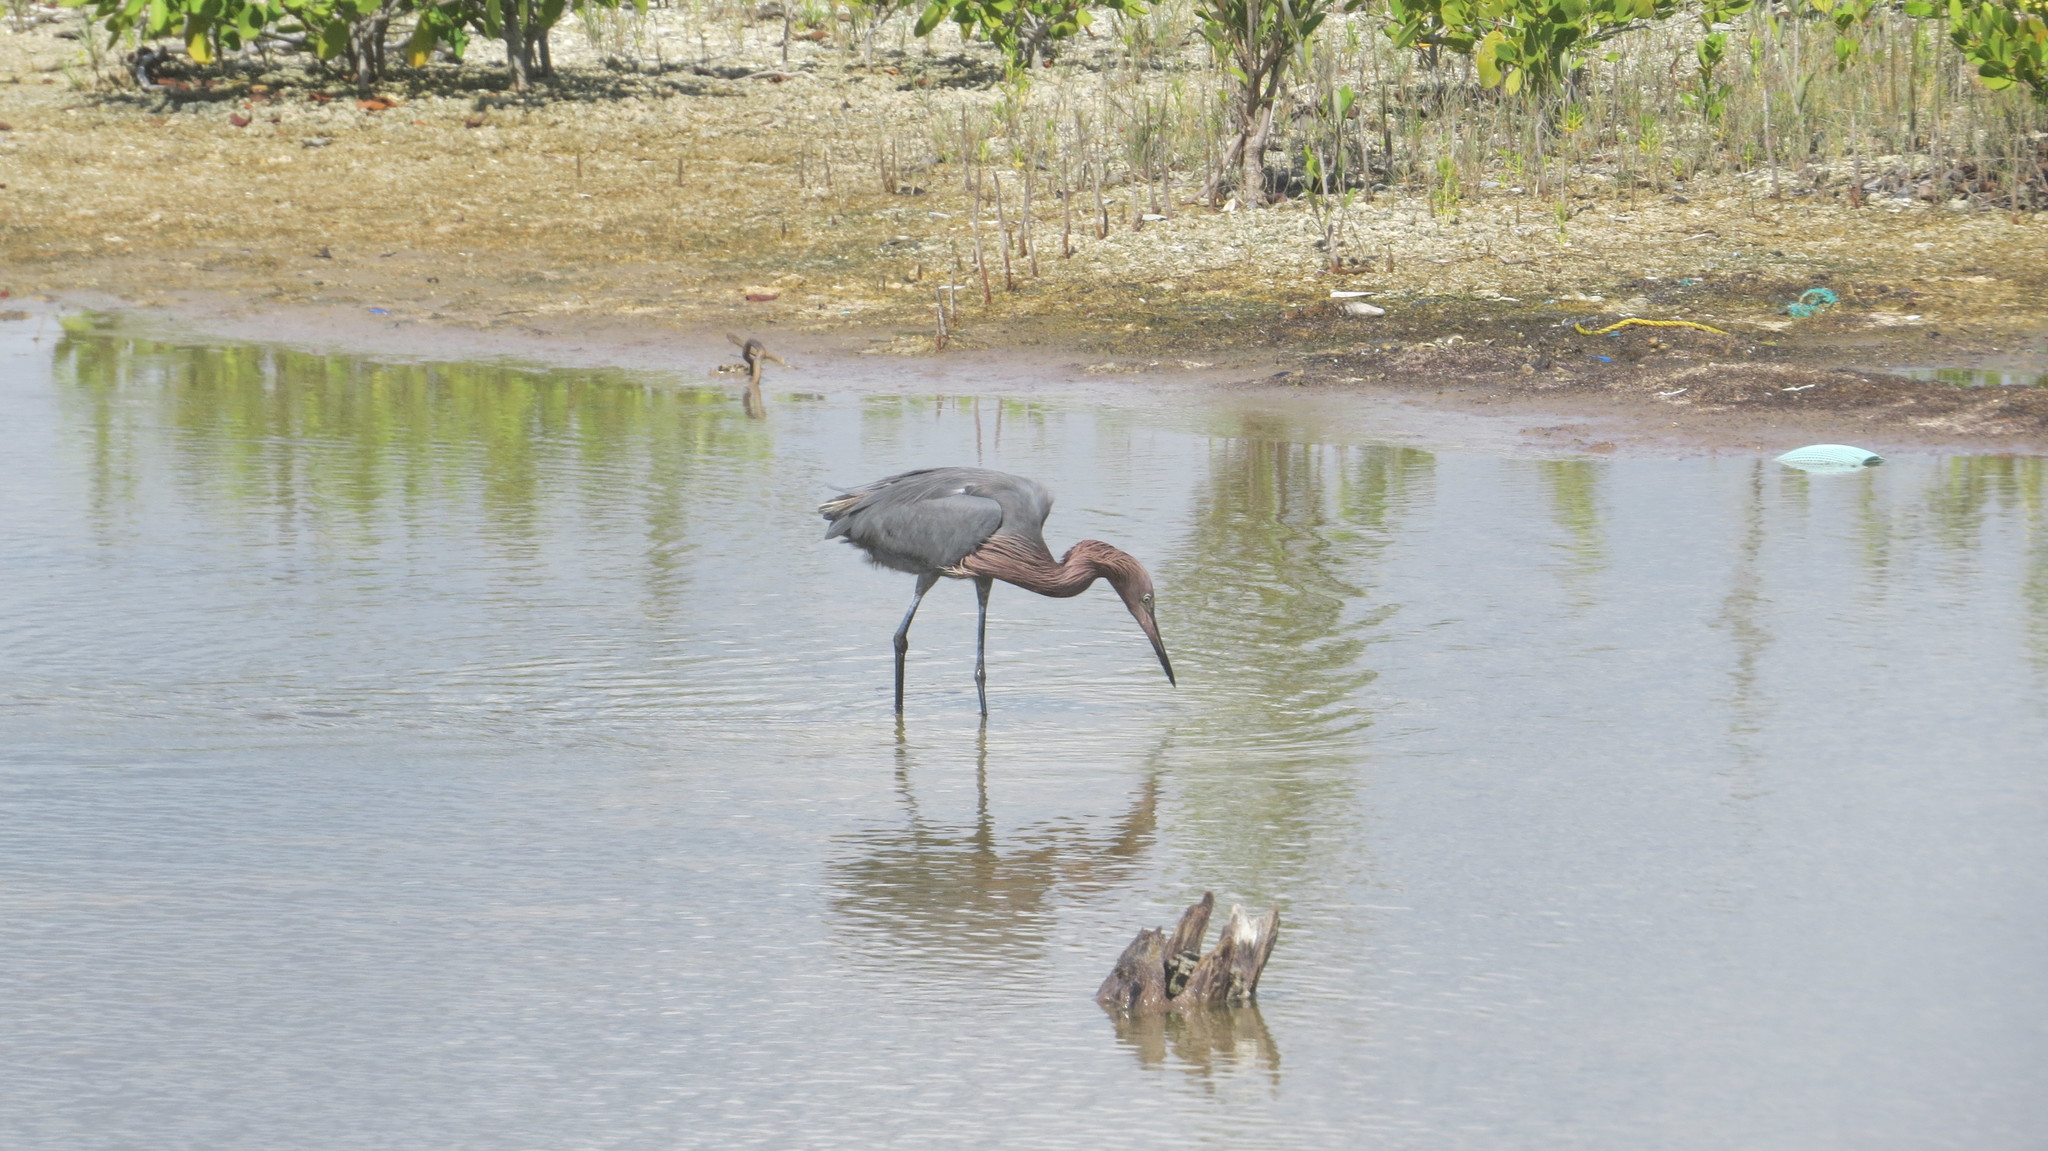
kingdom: Animalia
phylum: Chordata
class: Aves
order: Pelecaniformes
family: Ardeidae
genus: Egretta
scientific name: Egretta rufescens
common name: Reddish egret
